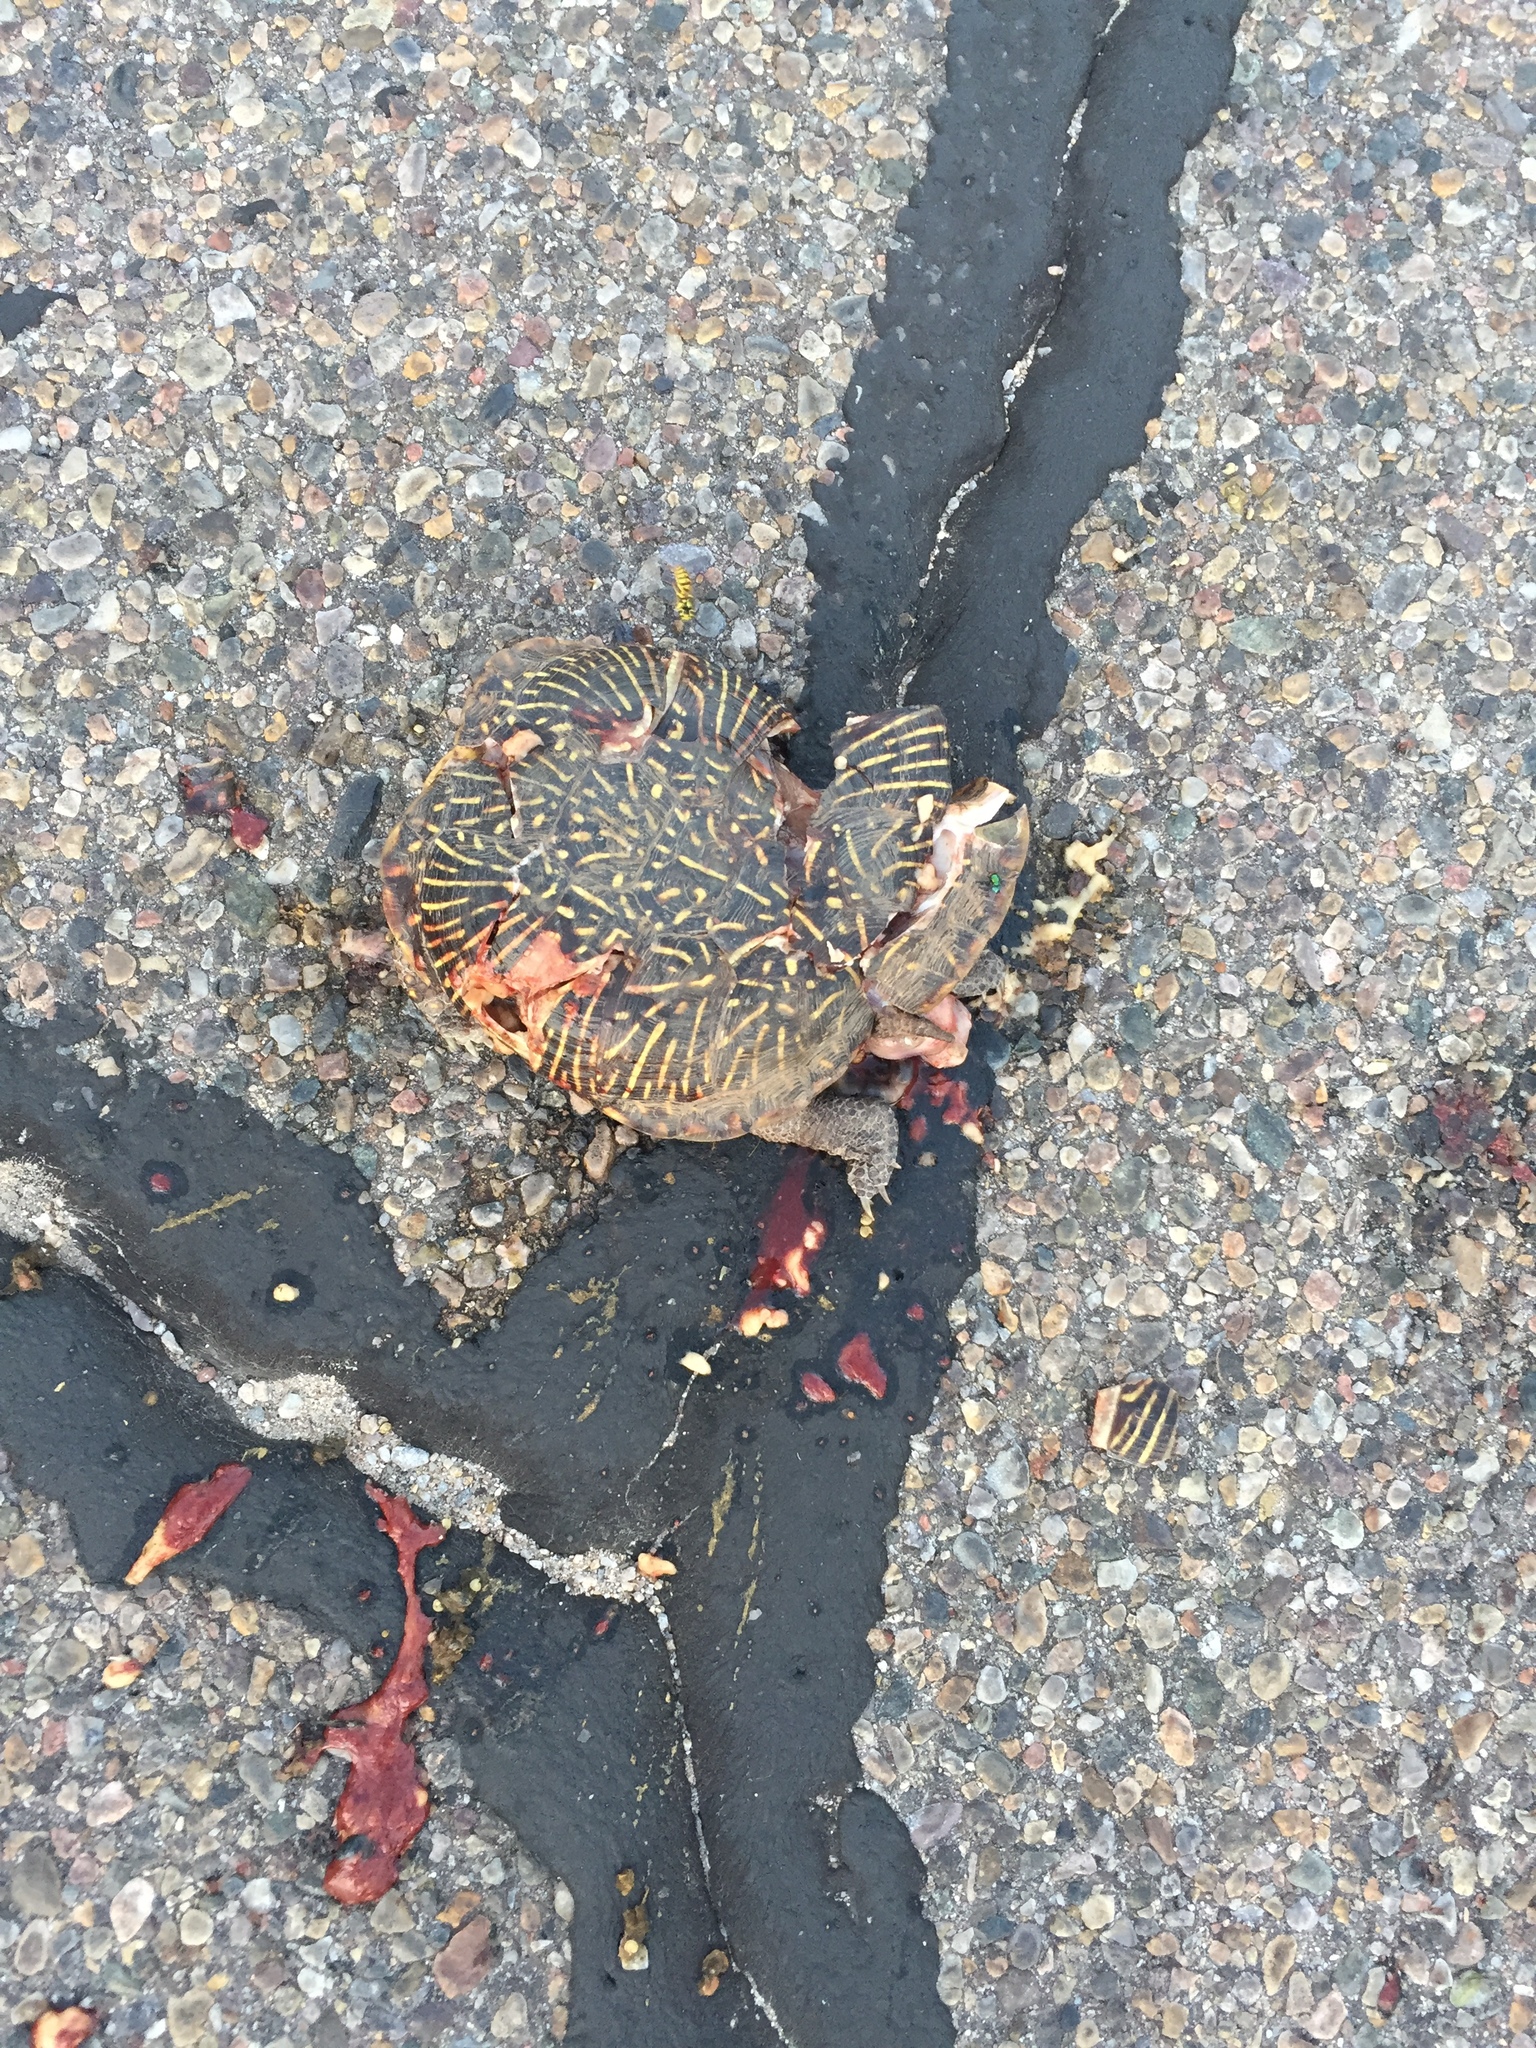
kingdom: Animalia
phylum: Chordata
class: Testudines
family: Emydidae
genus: Terrapene
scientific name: Terrapene ornata
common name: Western box turtle
